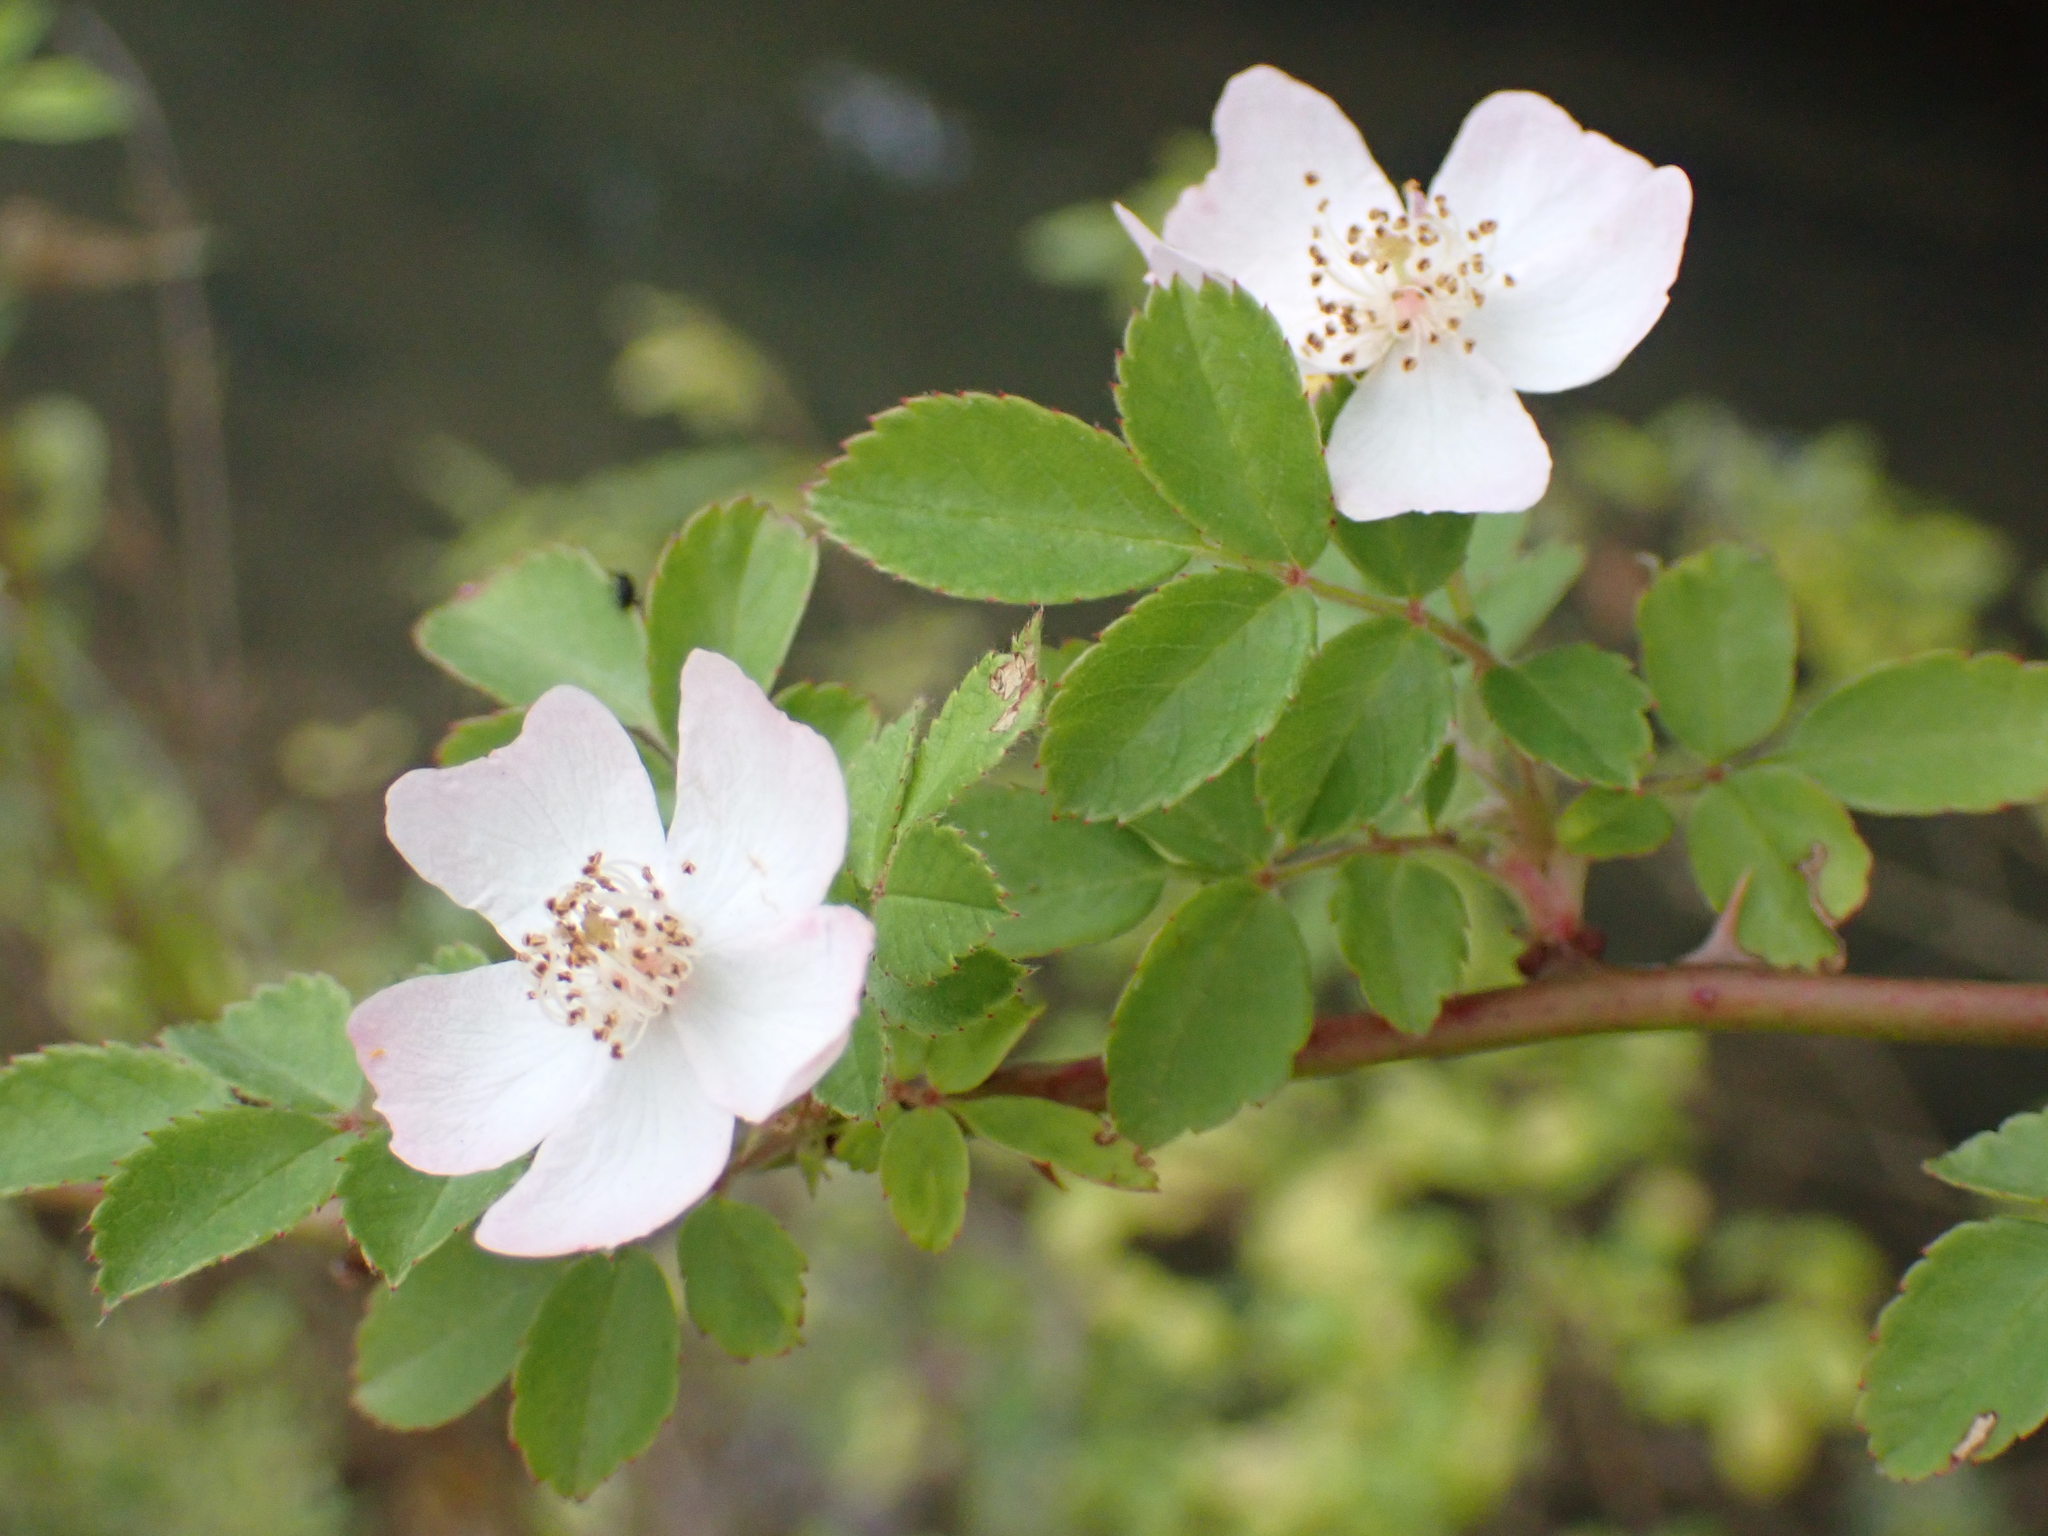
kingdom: Plantae
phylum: Tracheophyta
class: Magnoliopsida
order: Rosales
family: Rosaceae
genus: Rosa
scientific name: Rosa multiflora
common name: Multiflora rose
